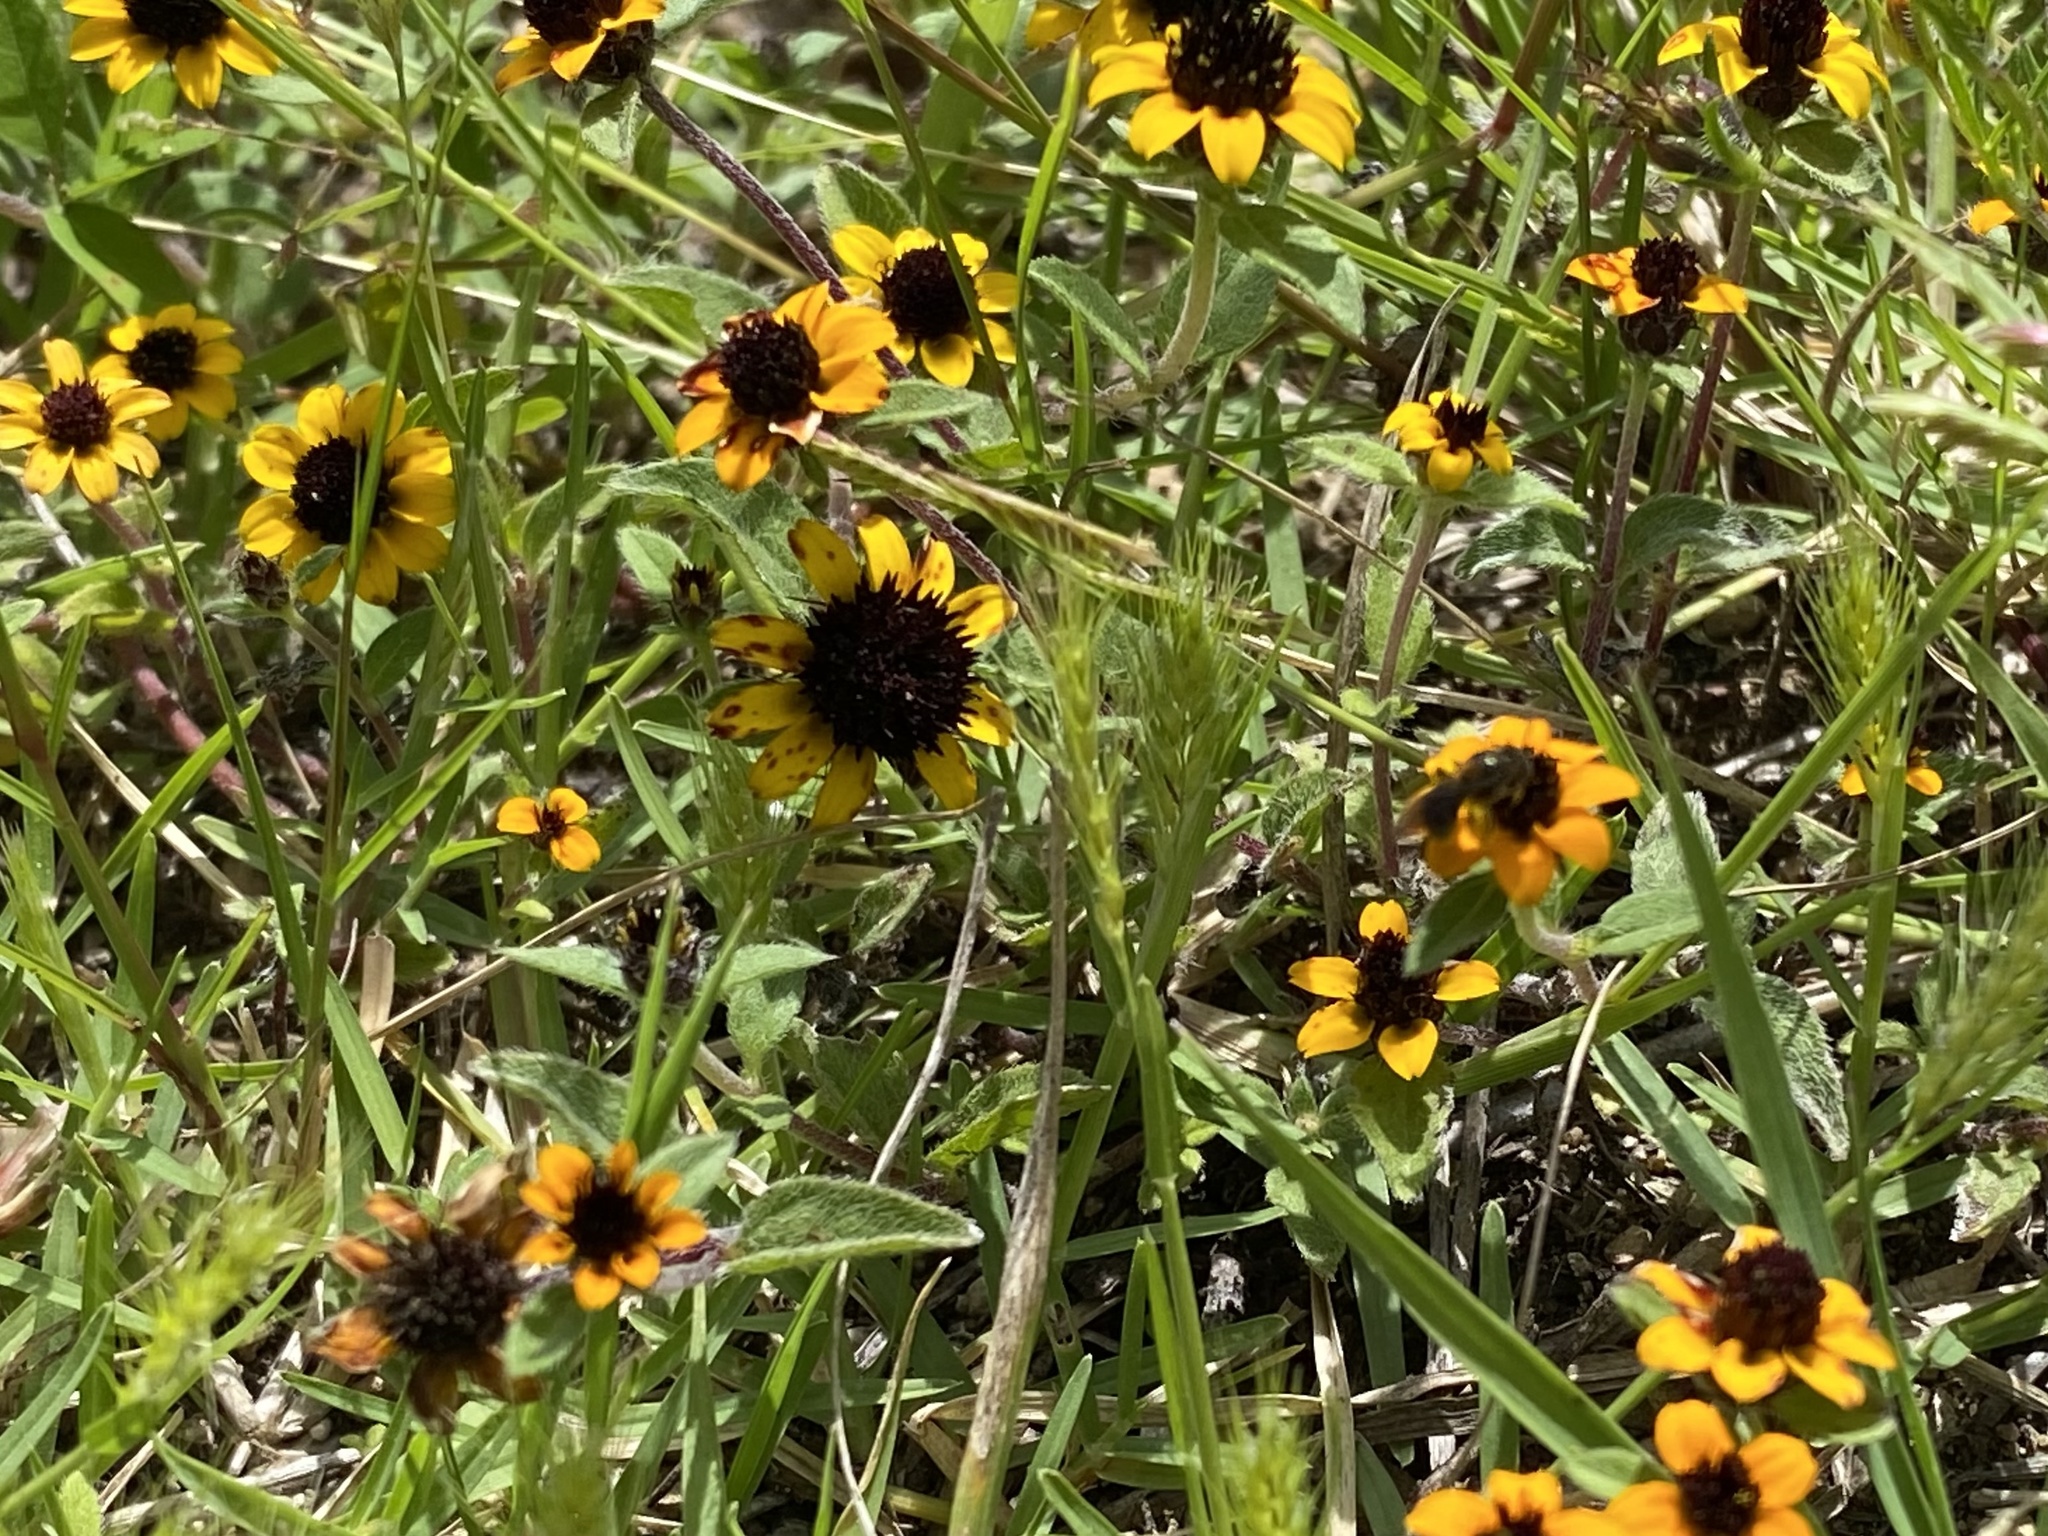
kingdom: Plantae
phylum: Tracheophyta
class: Magnoliopsida
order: Asterales
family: Asteraceae
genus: Sanvitalia
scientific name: Sanvitalia procumbens
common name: Mexican creeping zinnia
